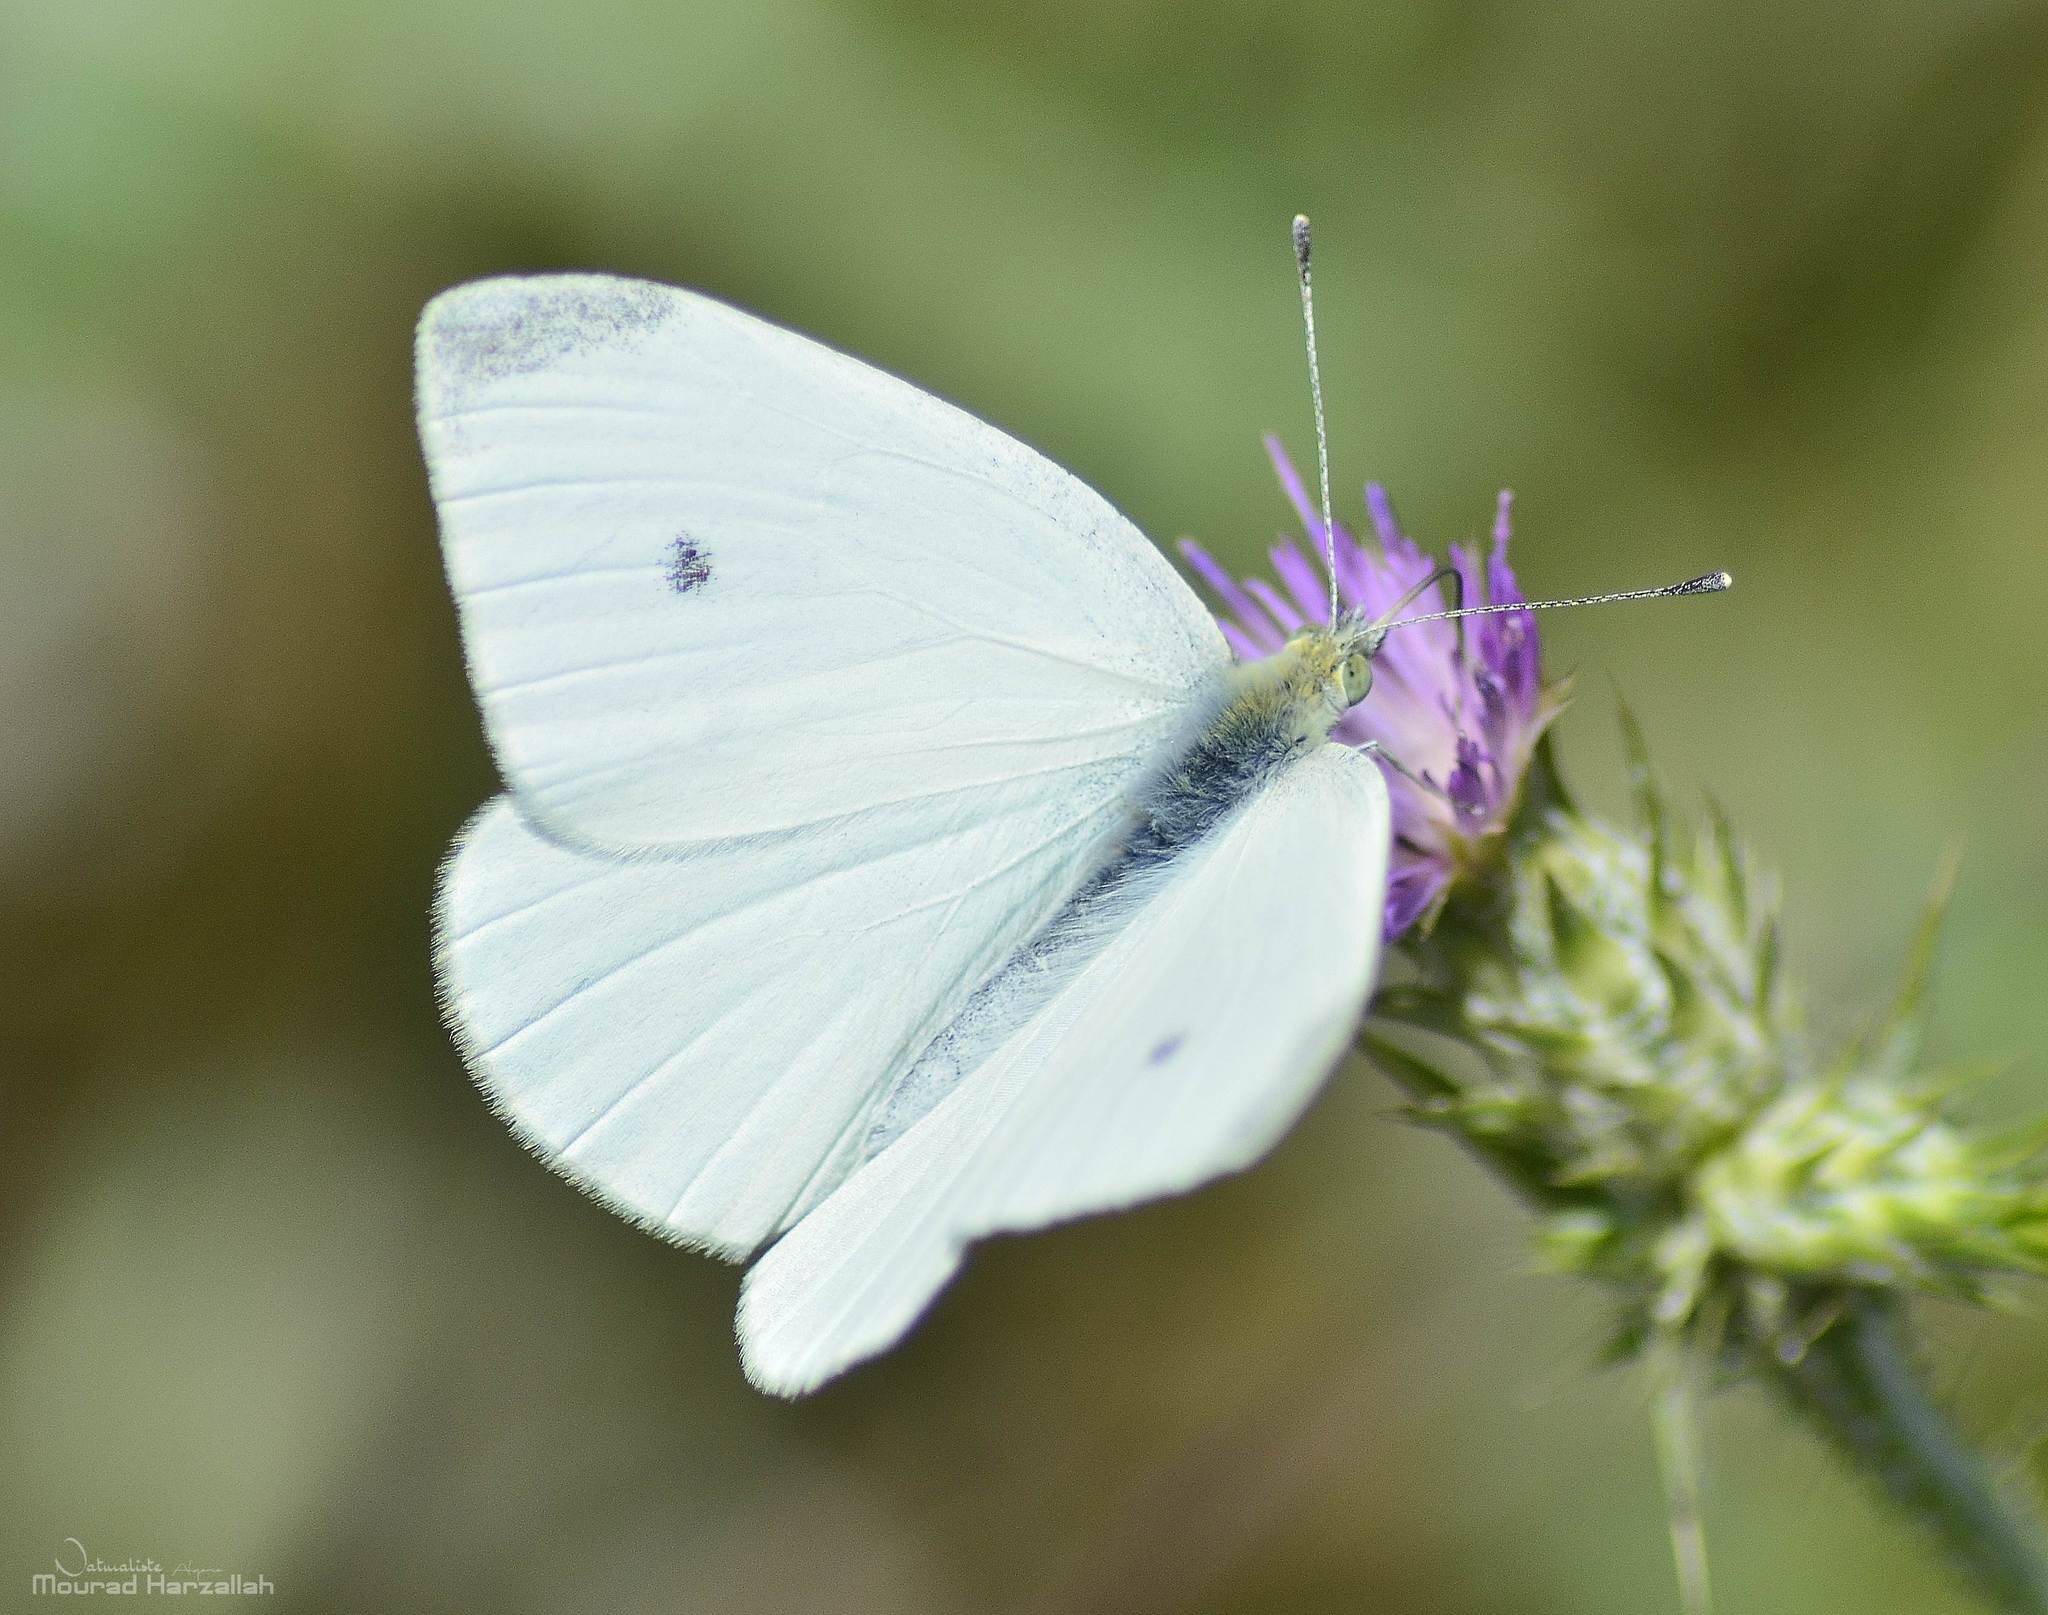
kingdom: Animalia
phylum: Arthropoda
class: Insecta
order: Lepidoptera
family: Pieridae
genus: Pieris
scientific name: Pieris rapae
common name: Small white
